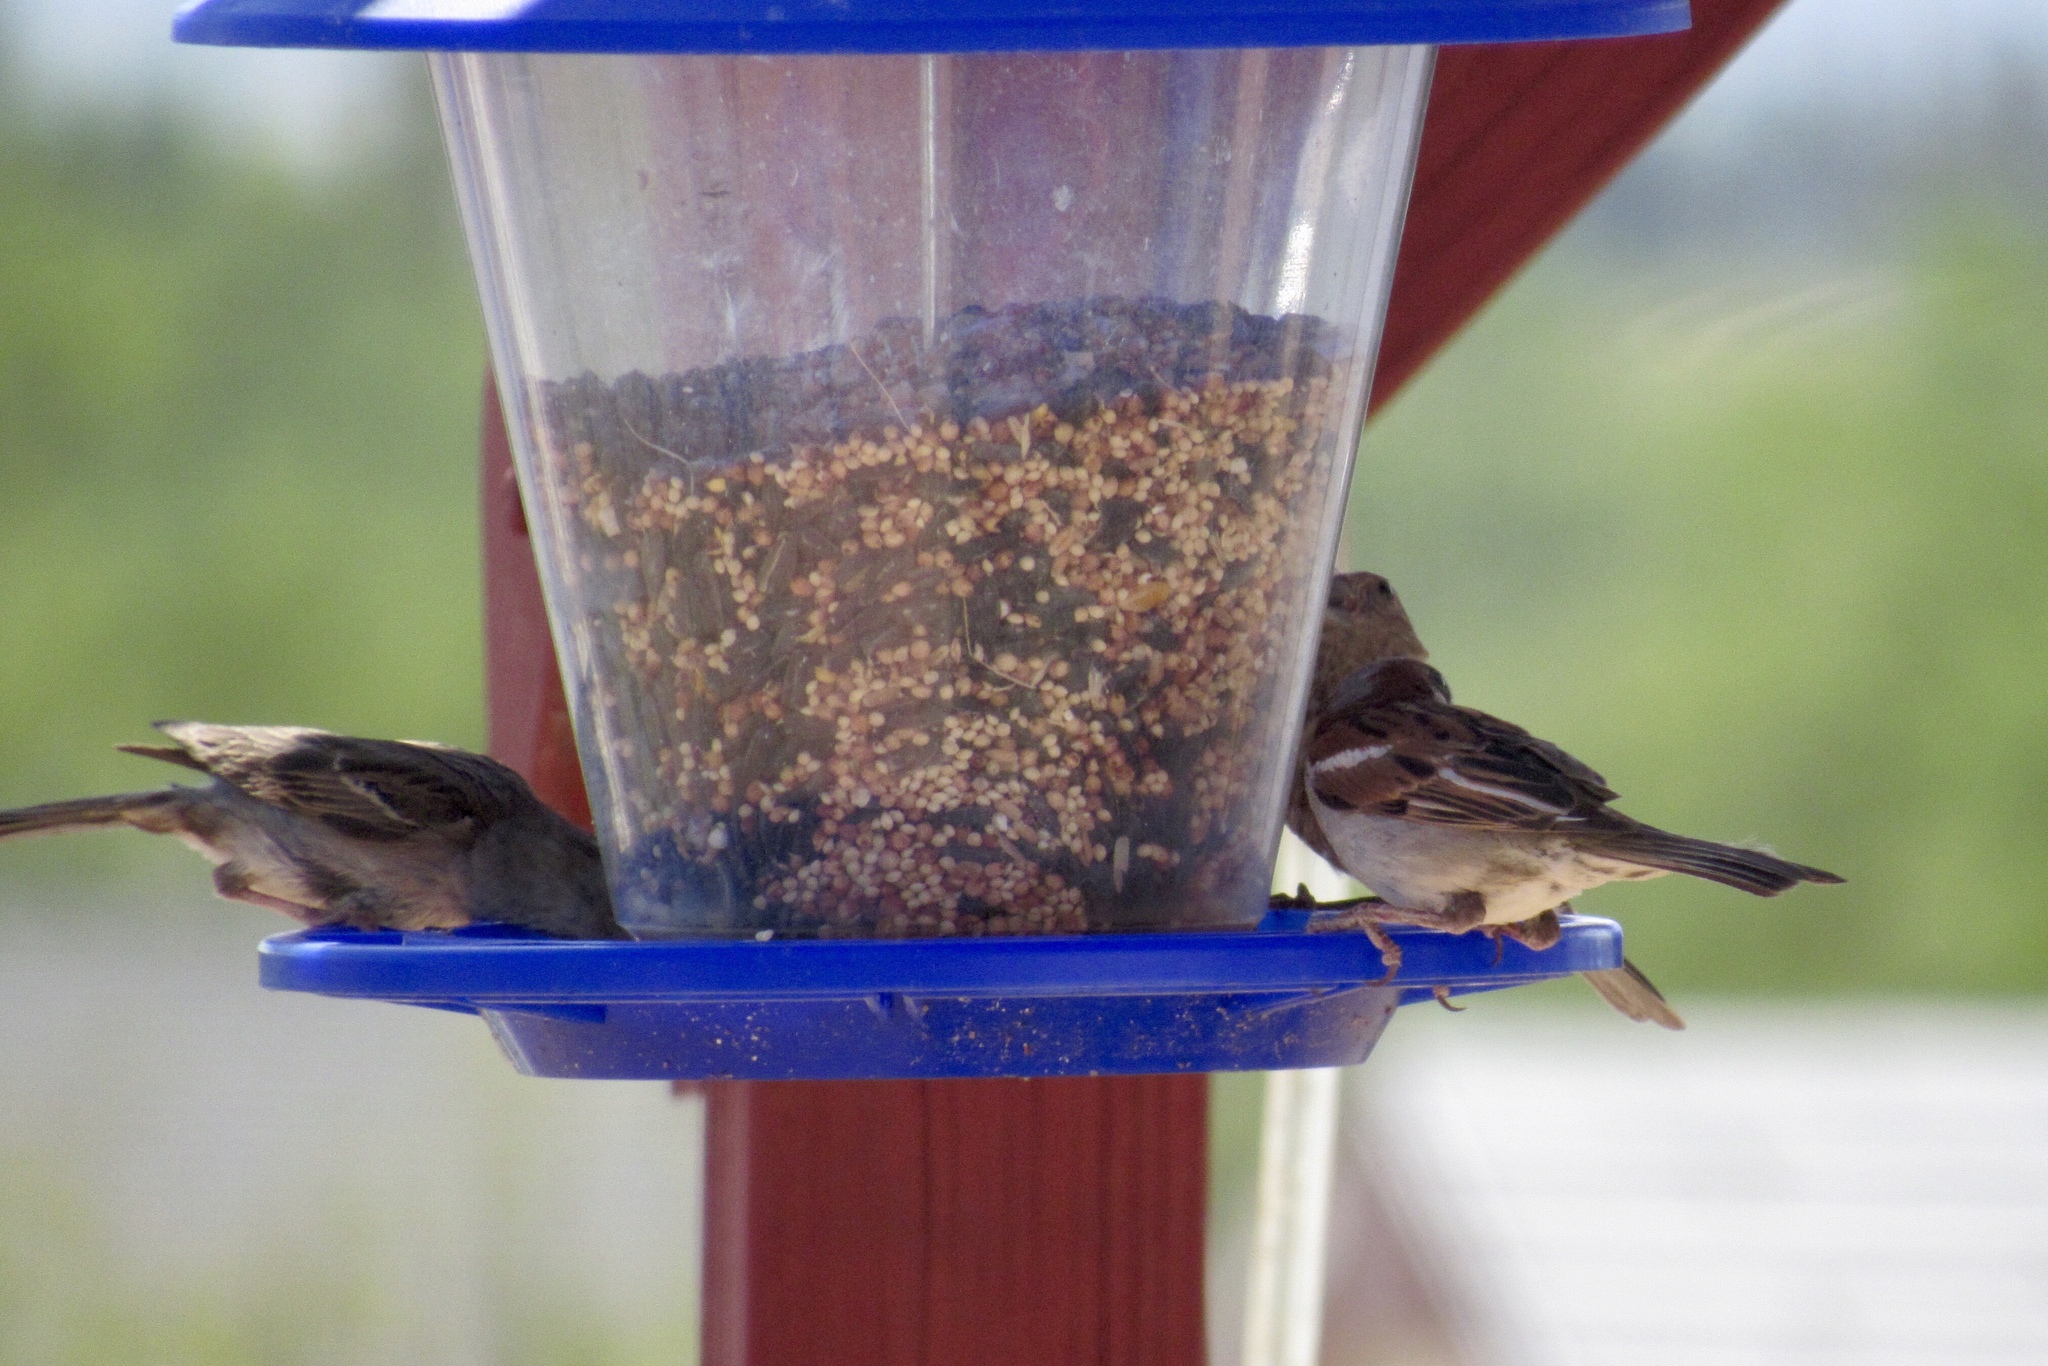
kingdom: Animalia
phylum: Chordata
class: Aves
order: Passeriformes
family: Passeridae
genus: Passer
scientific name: Passer domesticus
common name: House sparrow
